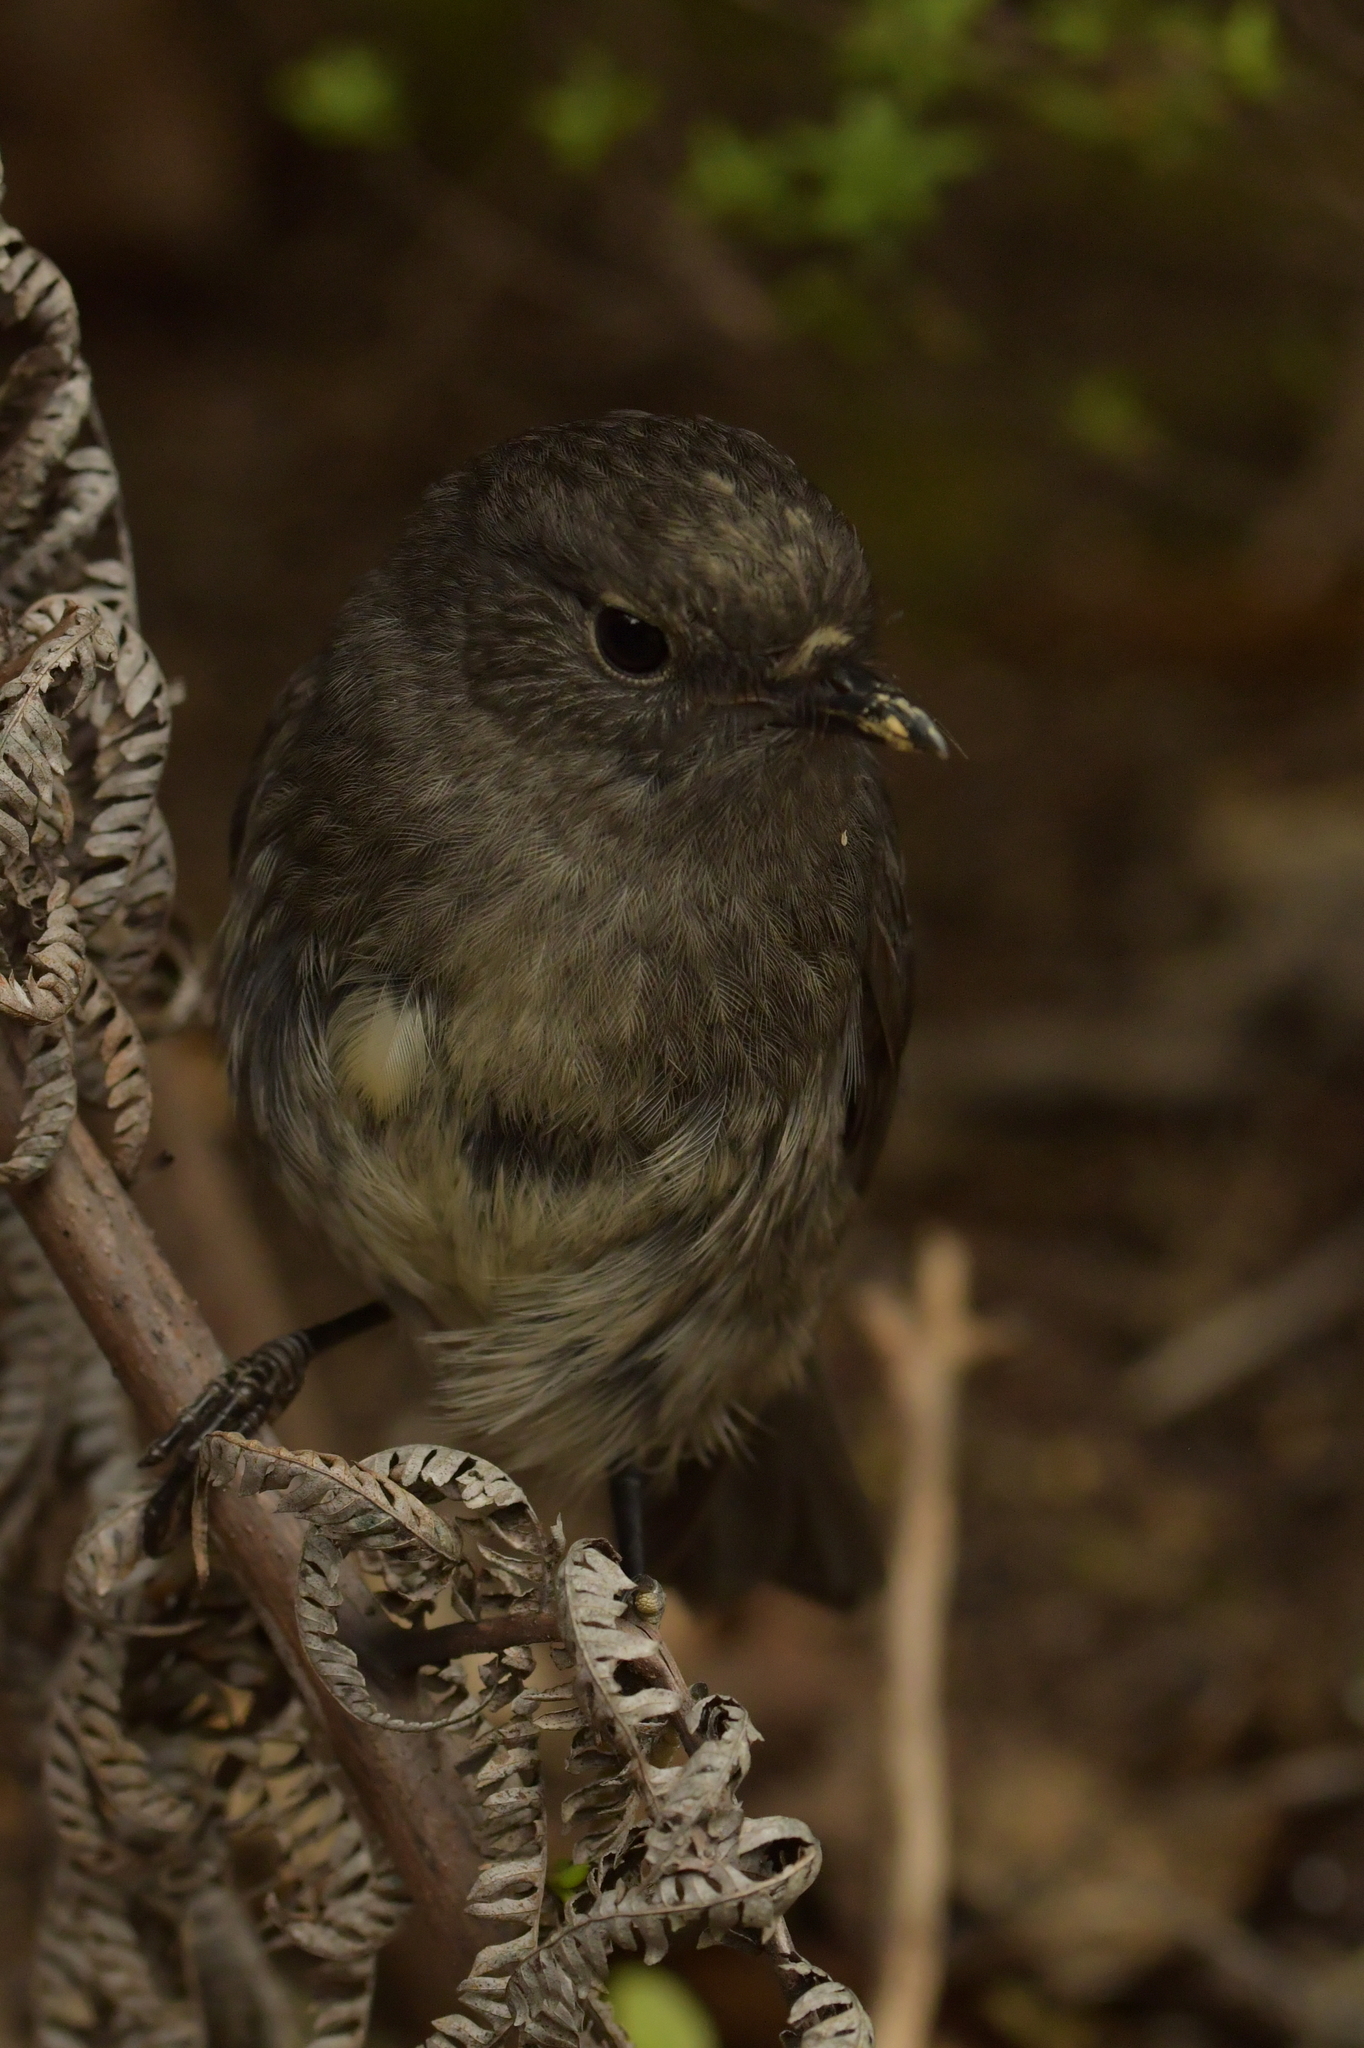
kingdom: Animalia
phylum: Chordata
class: Aves
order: Passeriformes
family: Petroicidae
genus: Petroica
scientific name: Petroica australis
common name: New zealand robin
